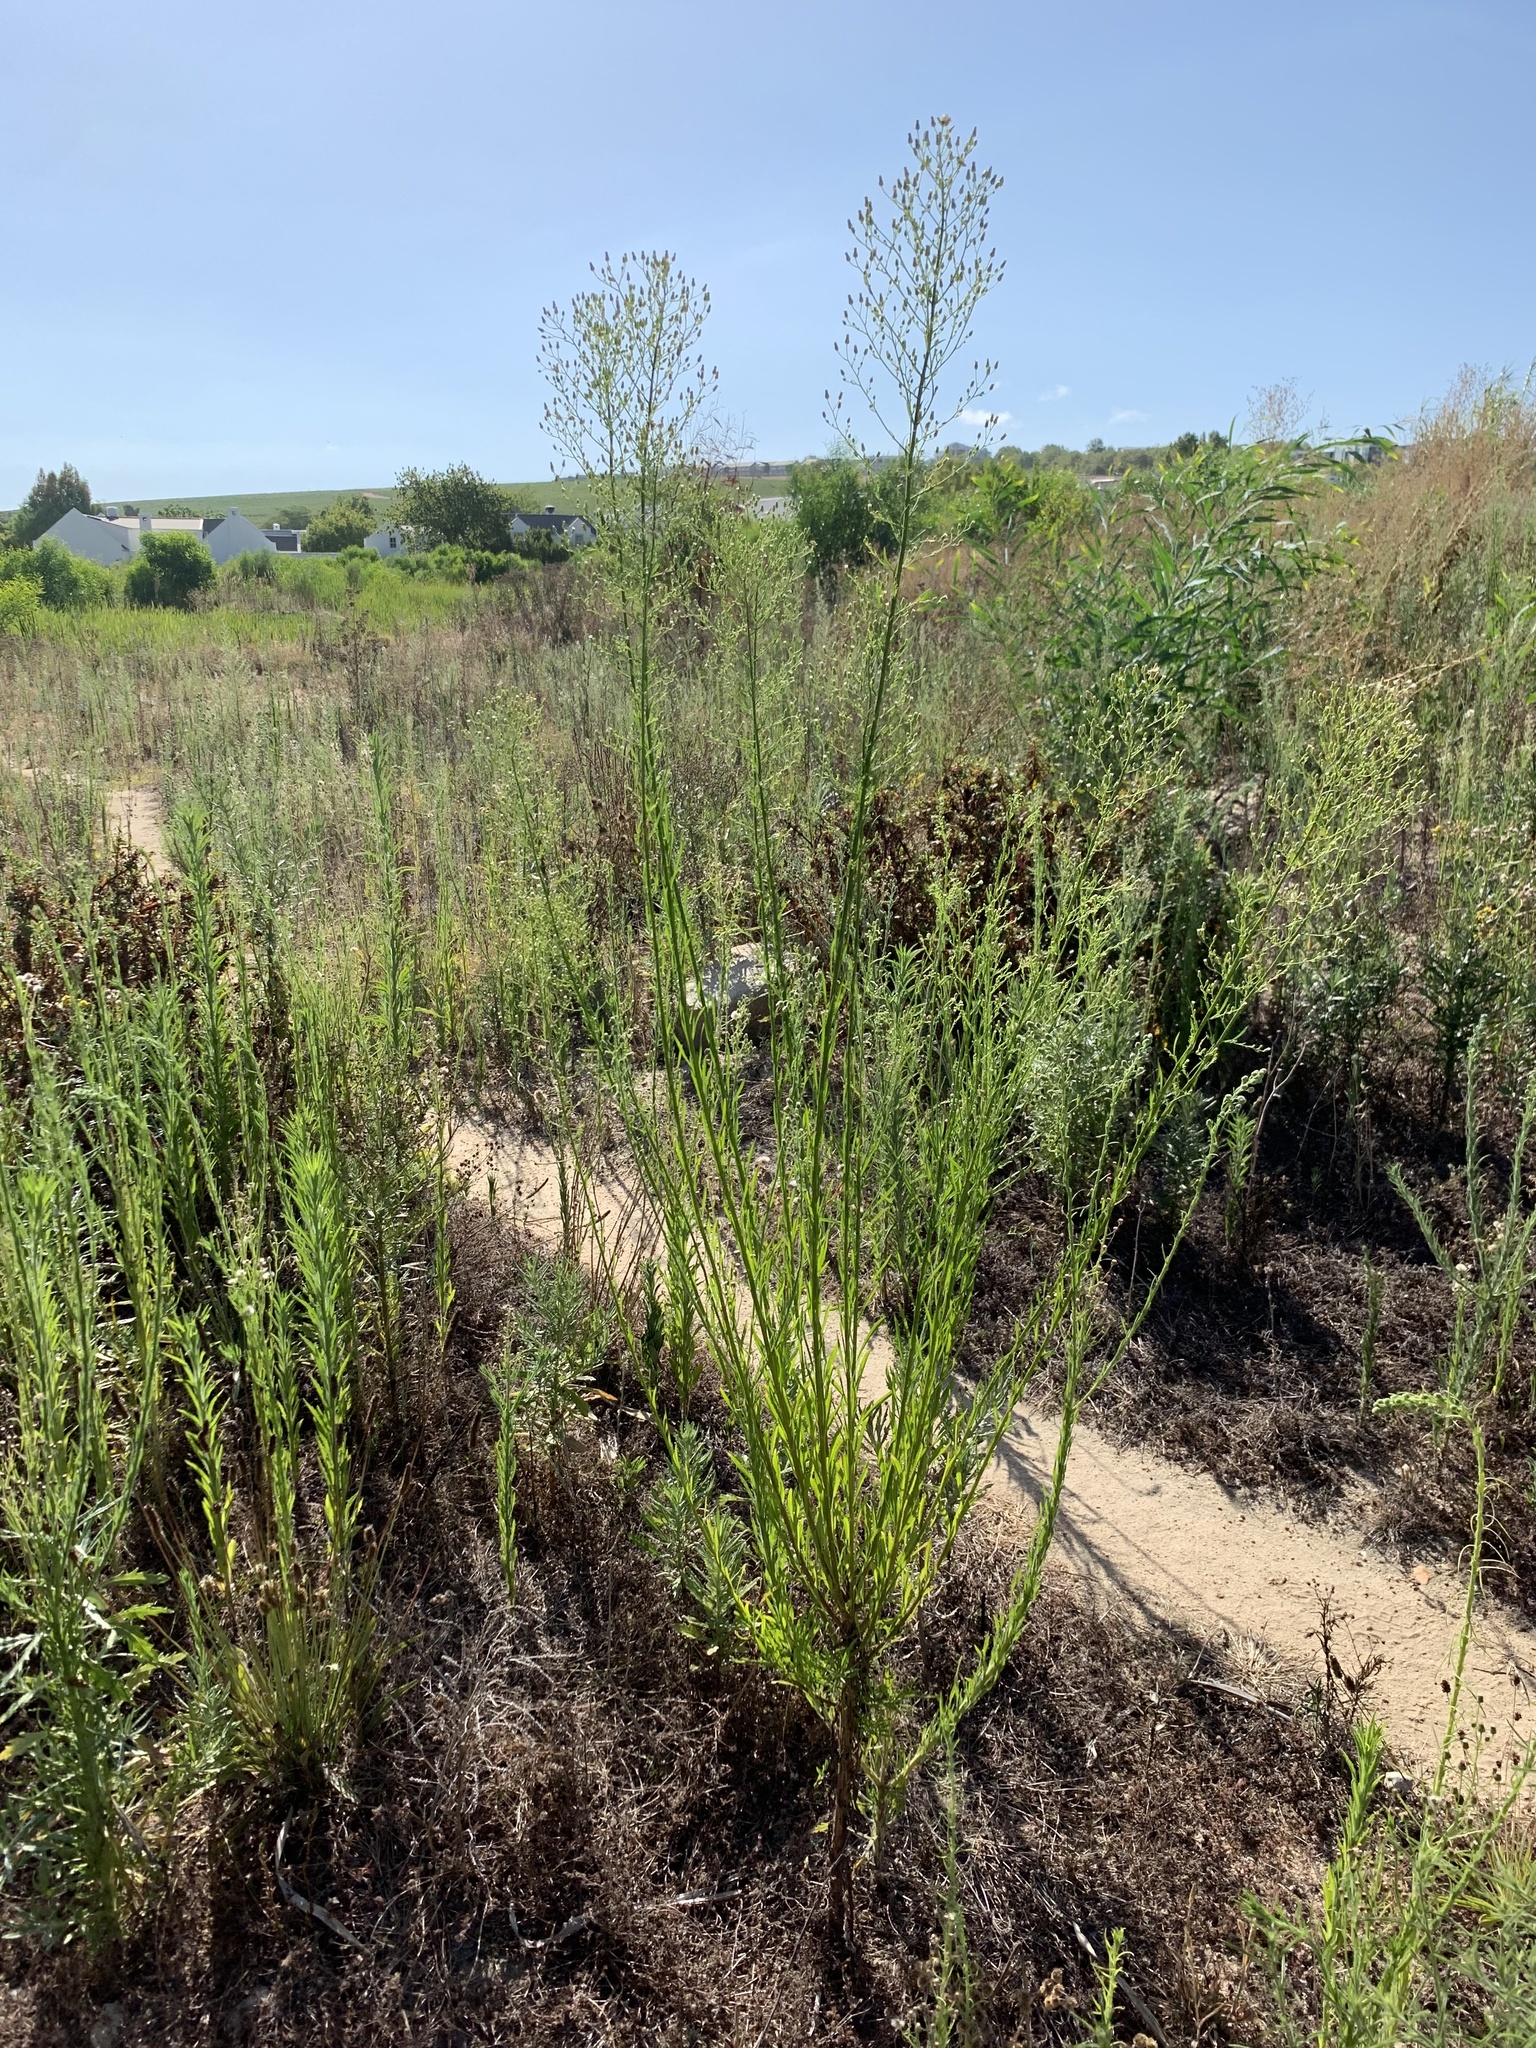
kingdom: Plantae
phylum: Tracheophyta
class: Magnoliopsida
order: Asterales
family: Asteraceae
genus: Erigeron
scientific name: Erigeron canadensis
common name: Canadian fleabane
